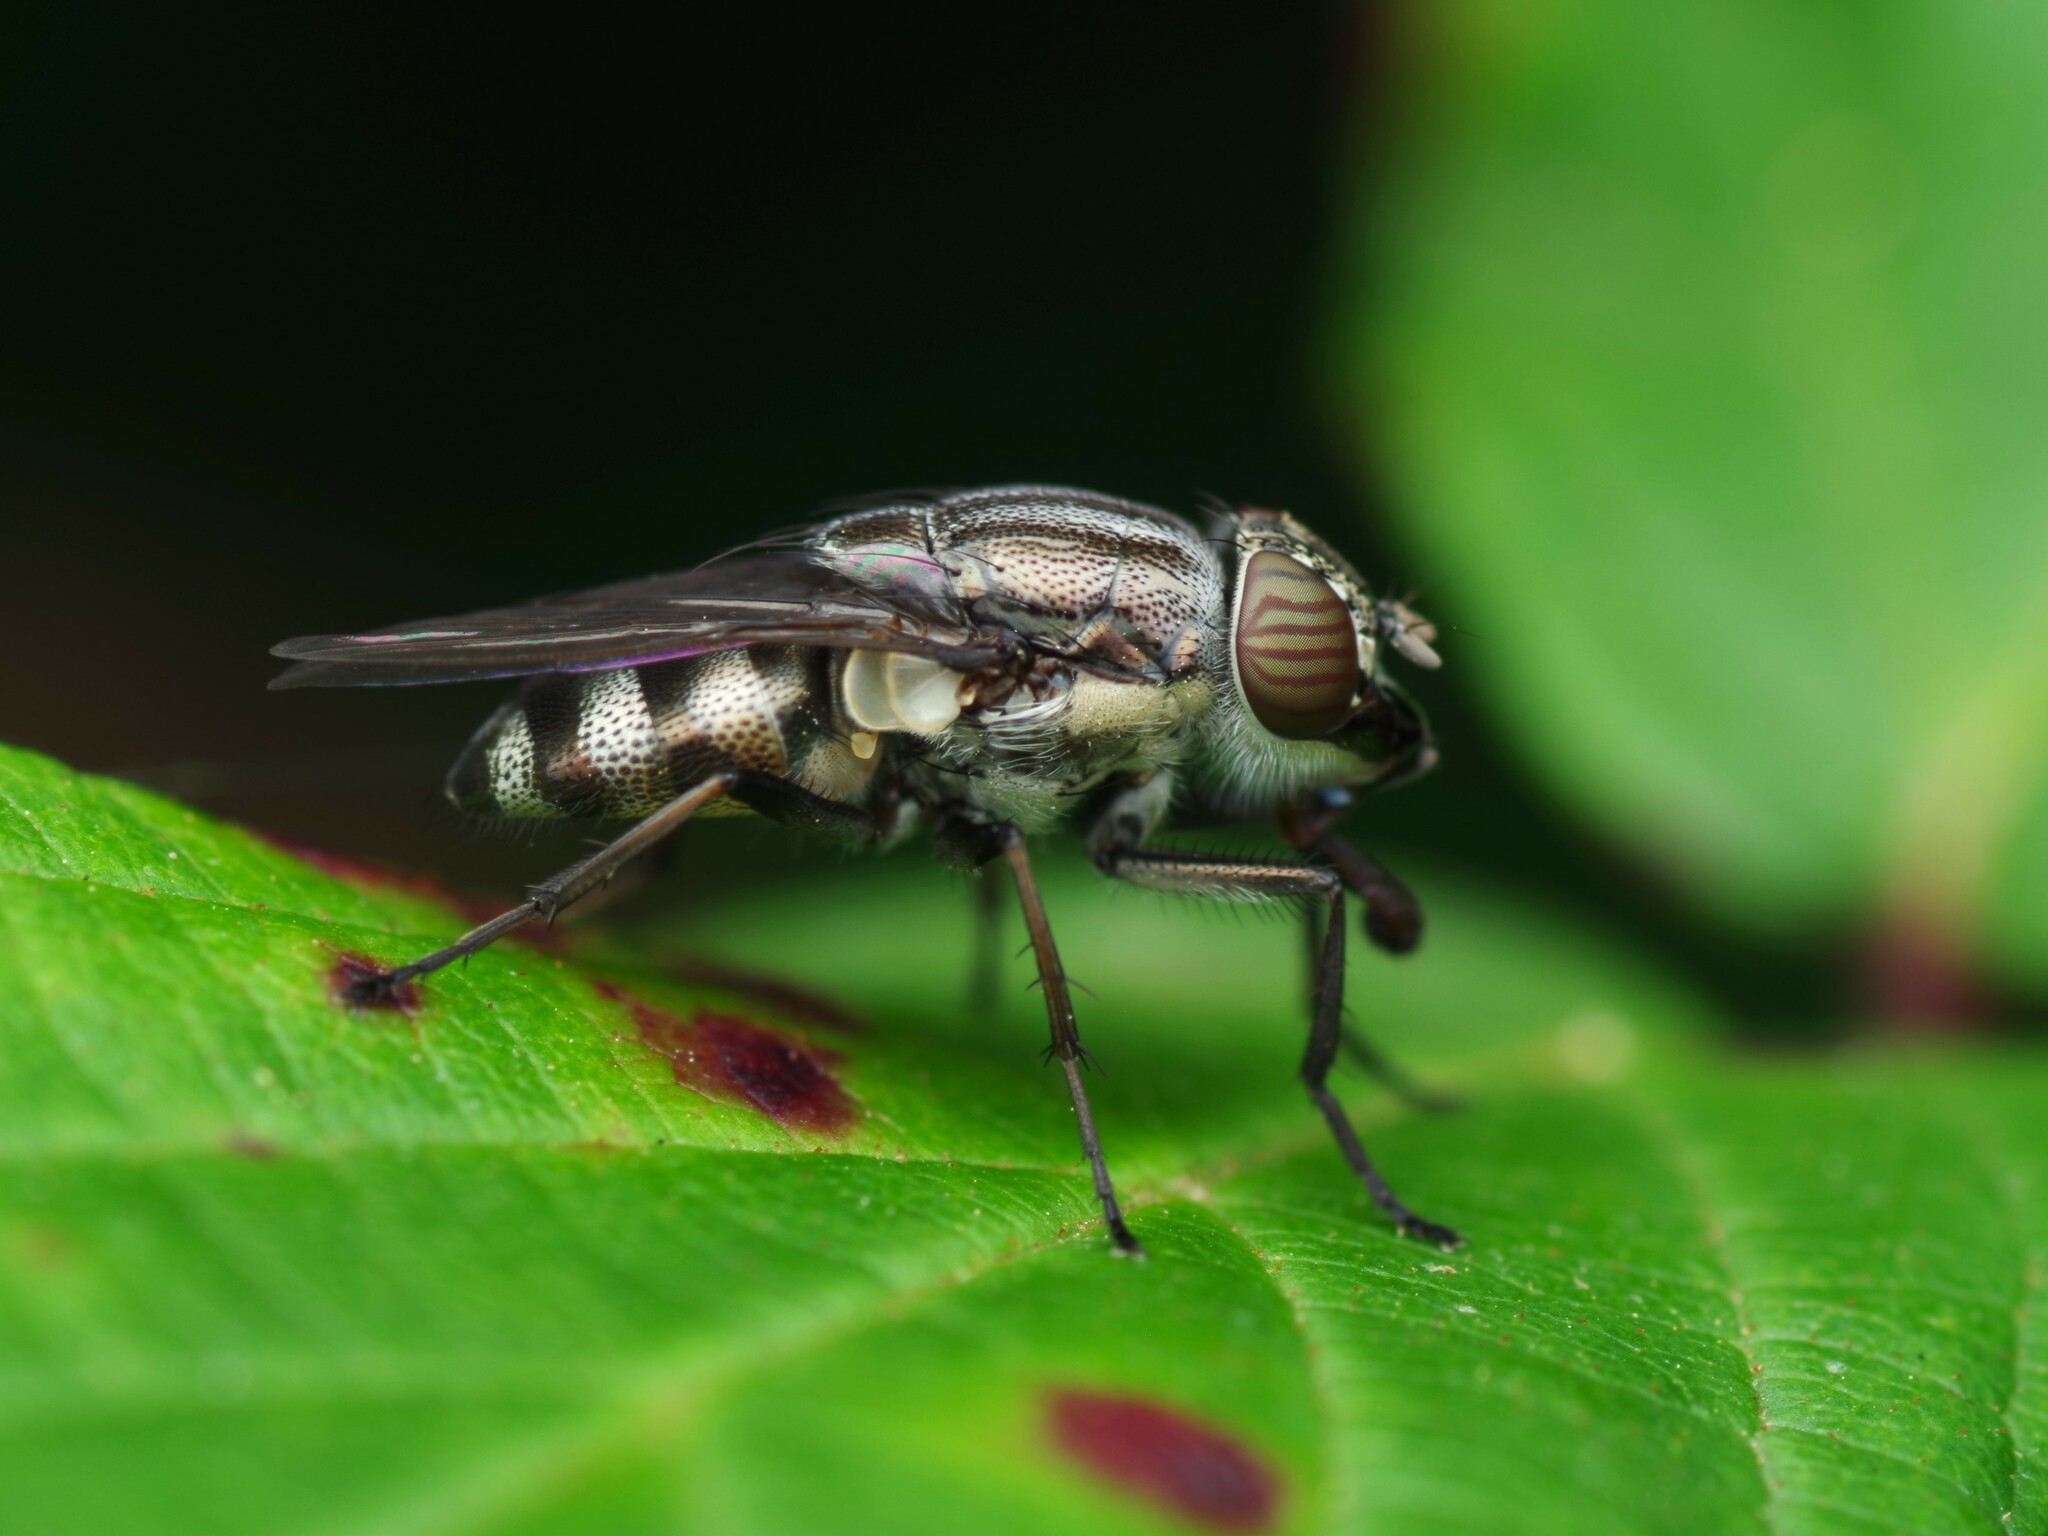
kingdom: Animalia
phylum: Arthropoda
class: Insecta
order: Diptera
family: Calliphoridae
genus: Stomorhina
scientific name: Stomorhina lunata
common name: Locust blowfly
